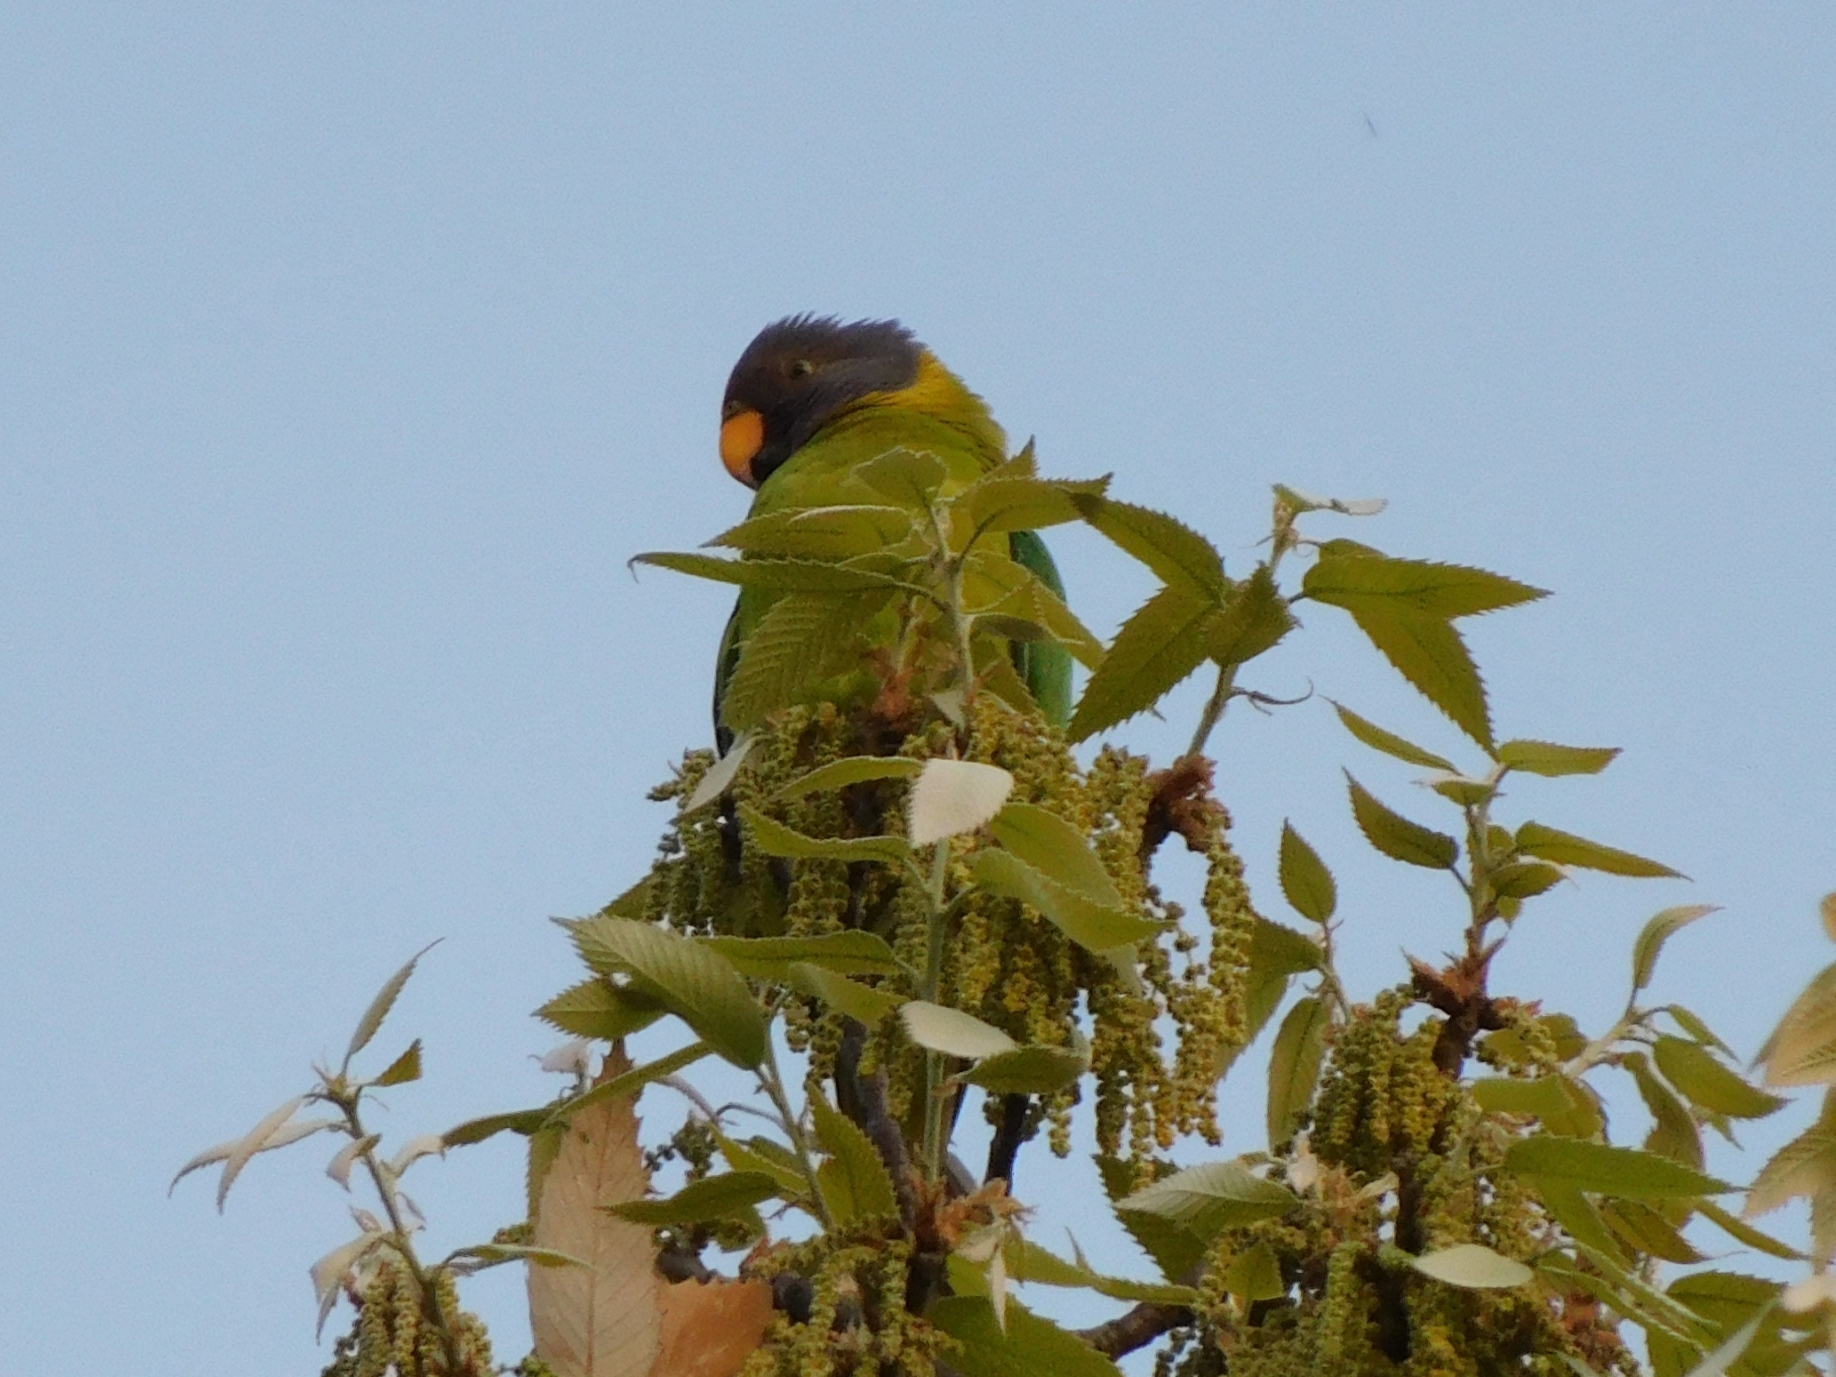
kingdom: Animalia
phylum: Chordata
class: Aves
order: Psittaciformes
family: Psittacidae
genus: Psittacula
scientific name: Psittacula cyanocephala
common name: Plum-headed parakeet
